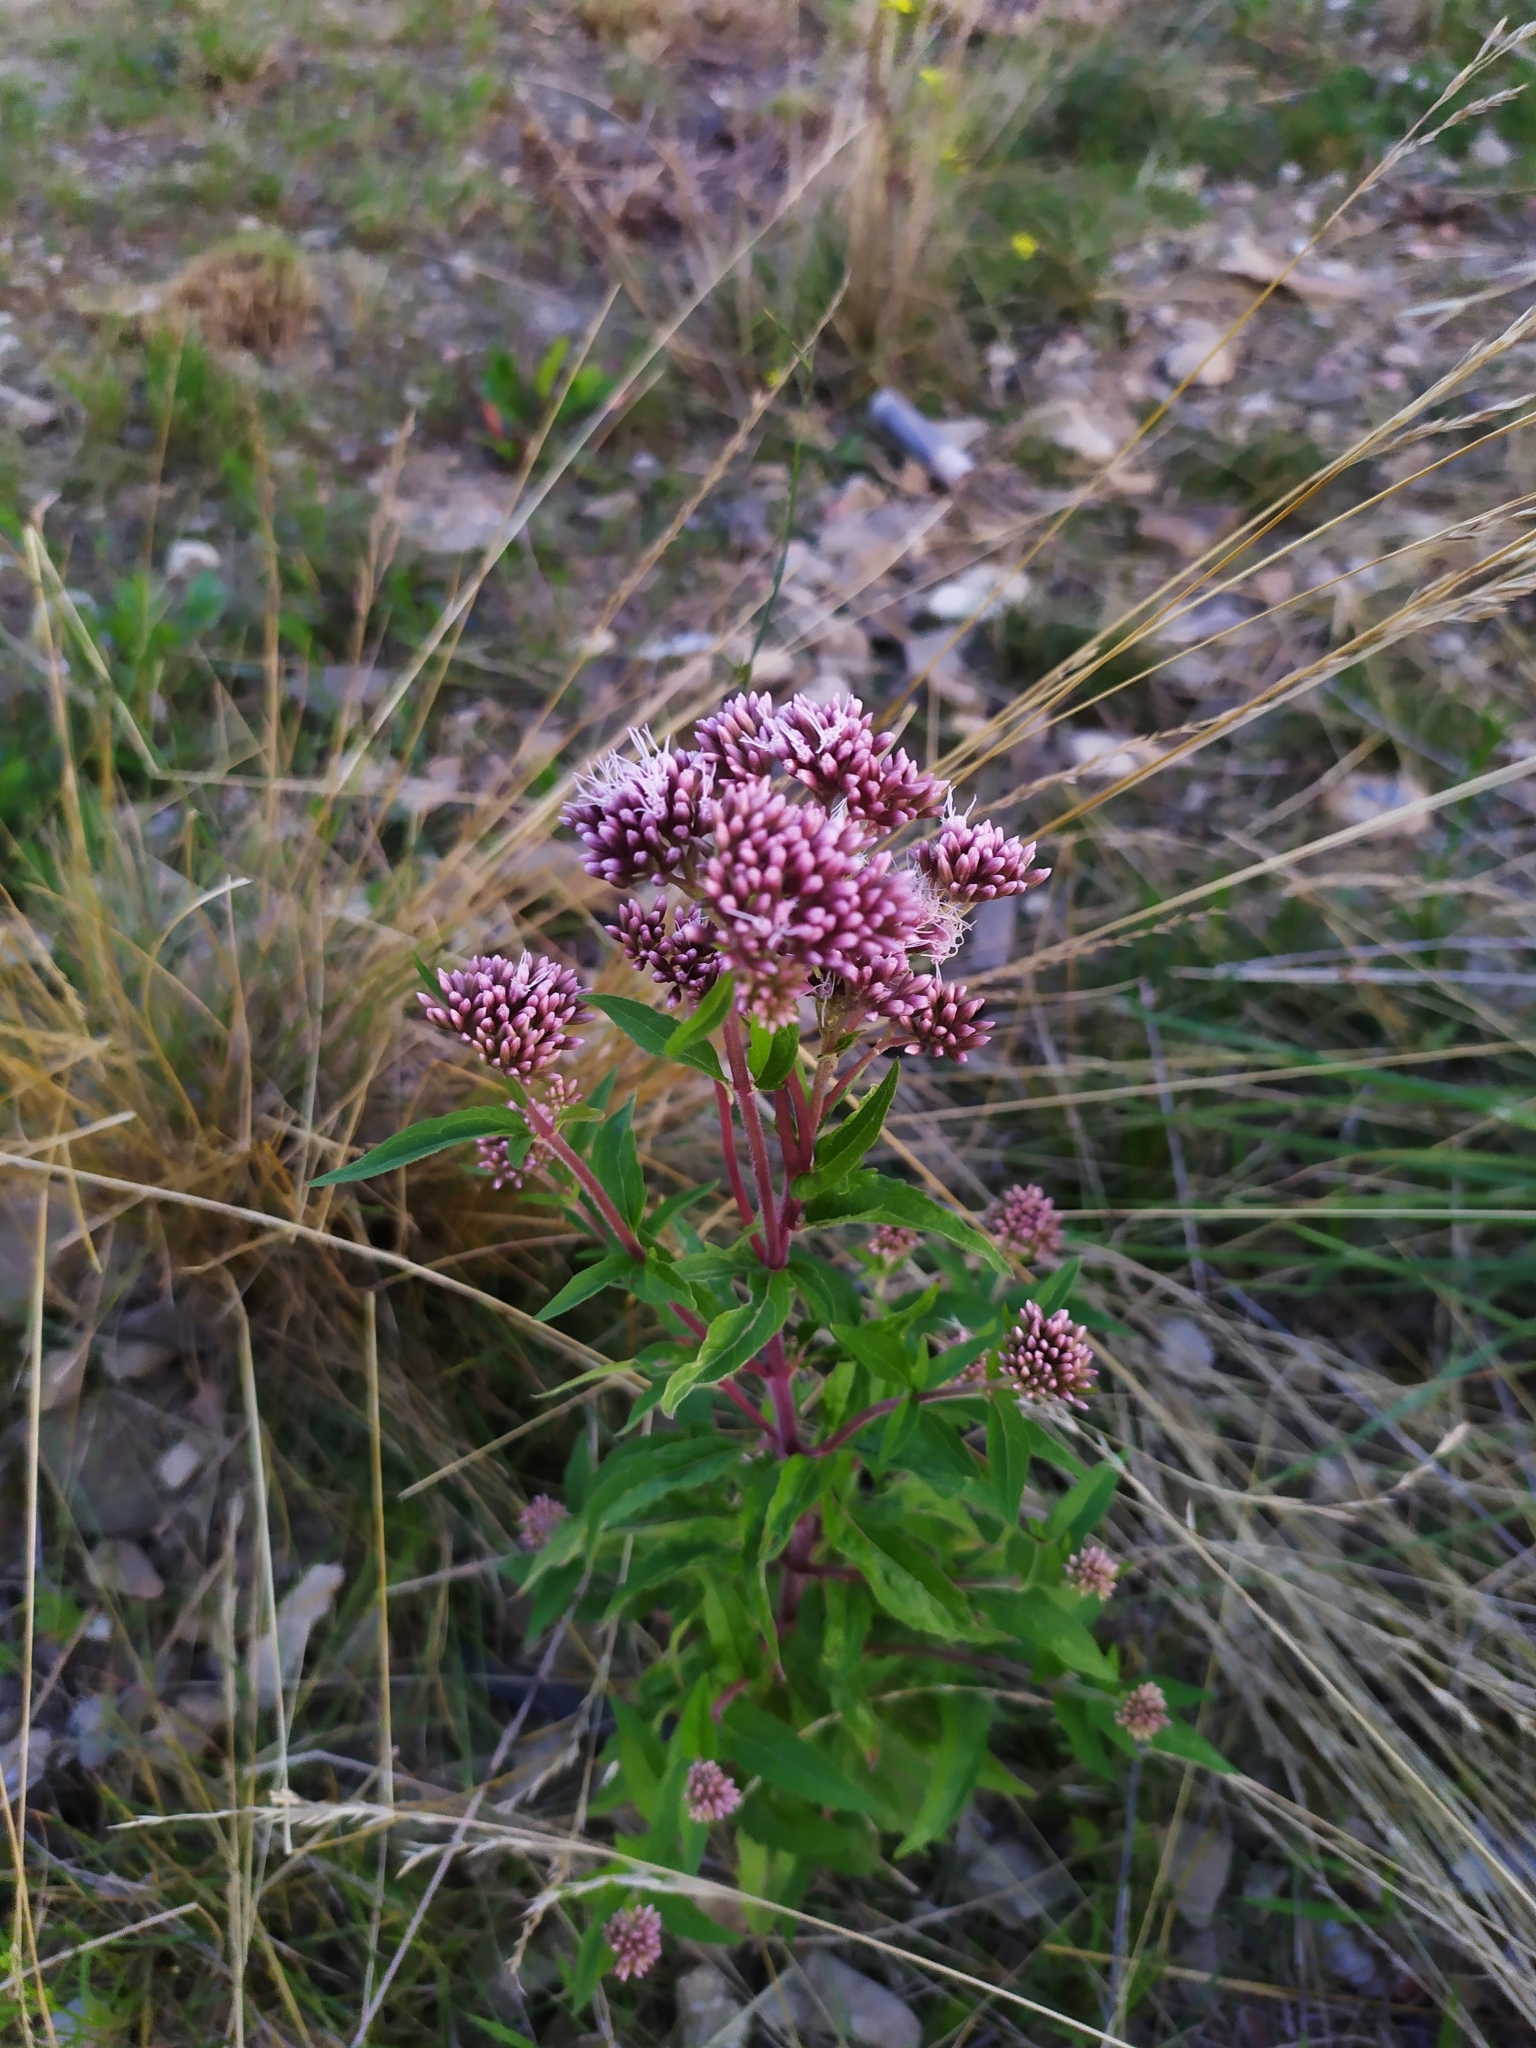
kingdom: Plantae
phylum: Tracheophyta
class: Magnoliopsida
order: Asterales
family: Asteraceae
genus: Eupatorium
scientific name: Eupatorium cannabinum
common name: Hemp-agrimony
